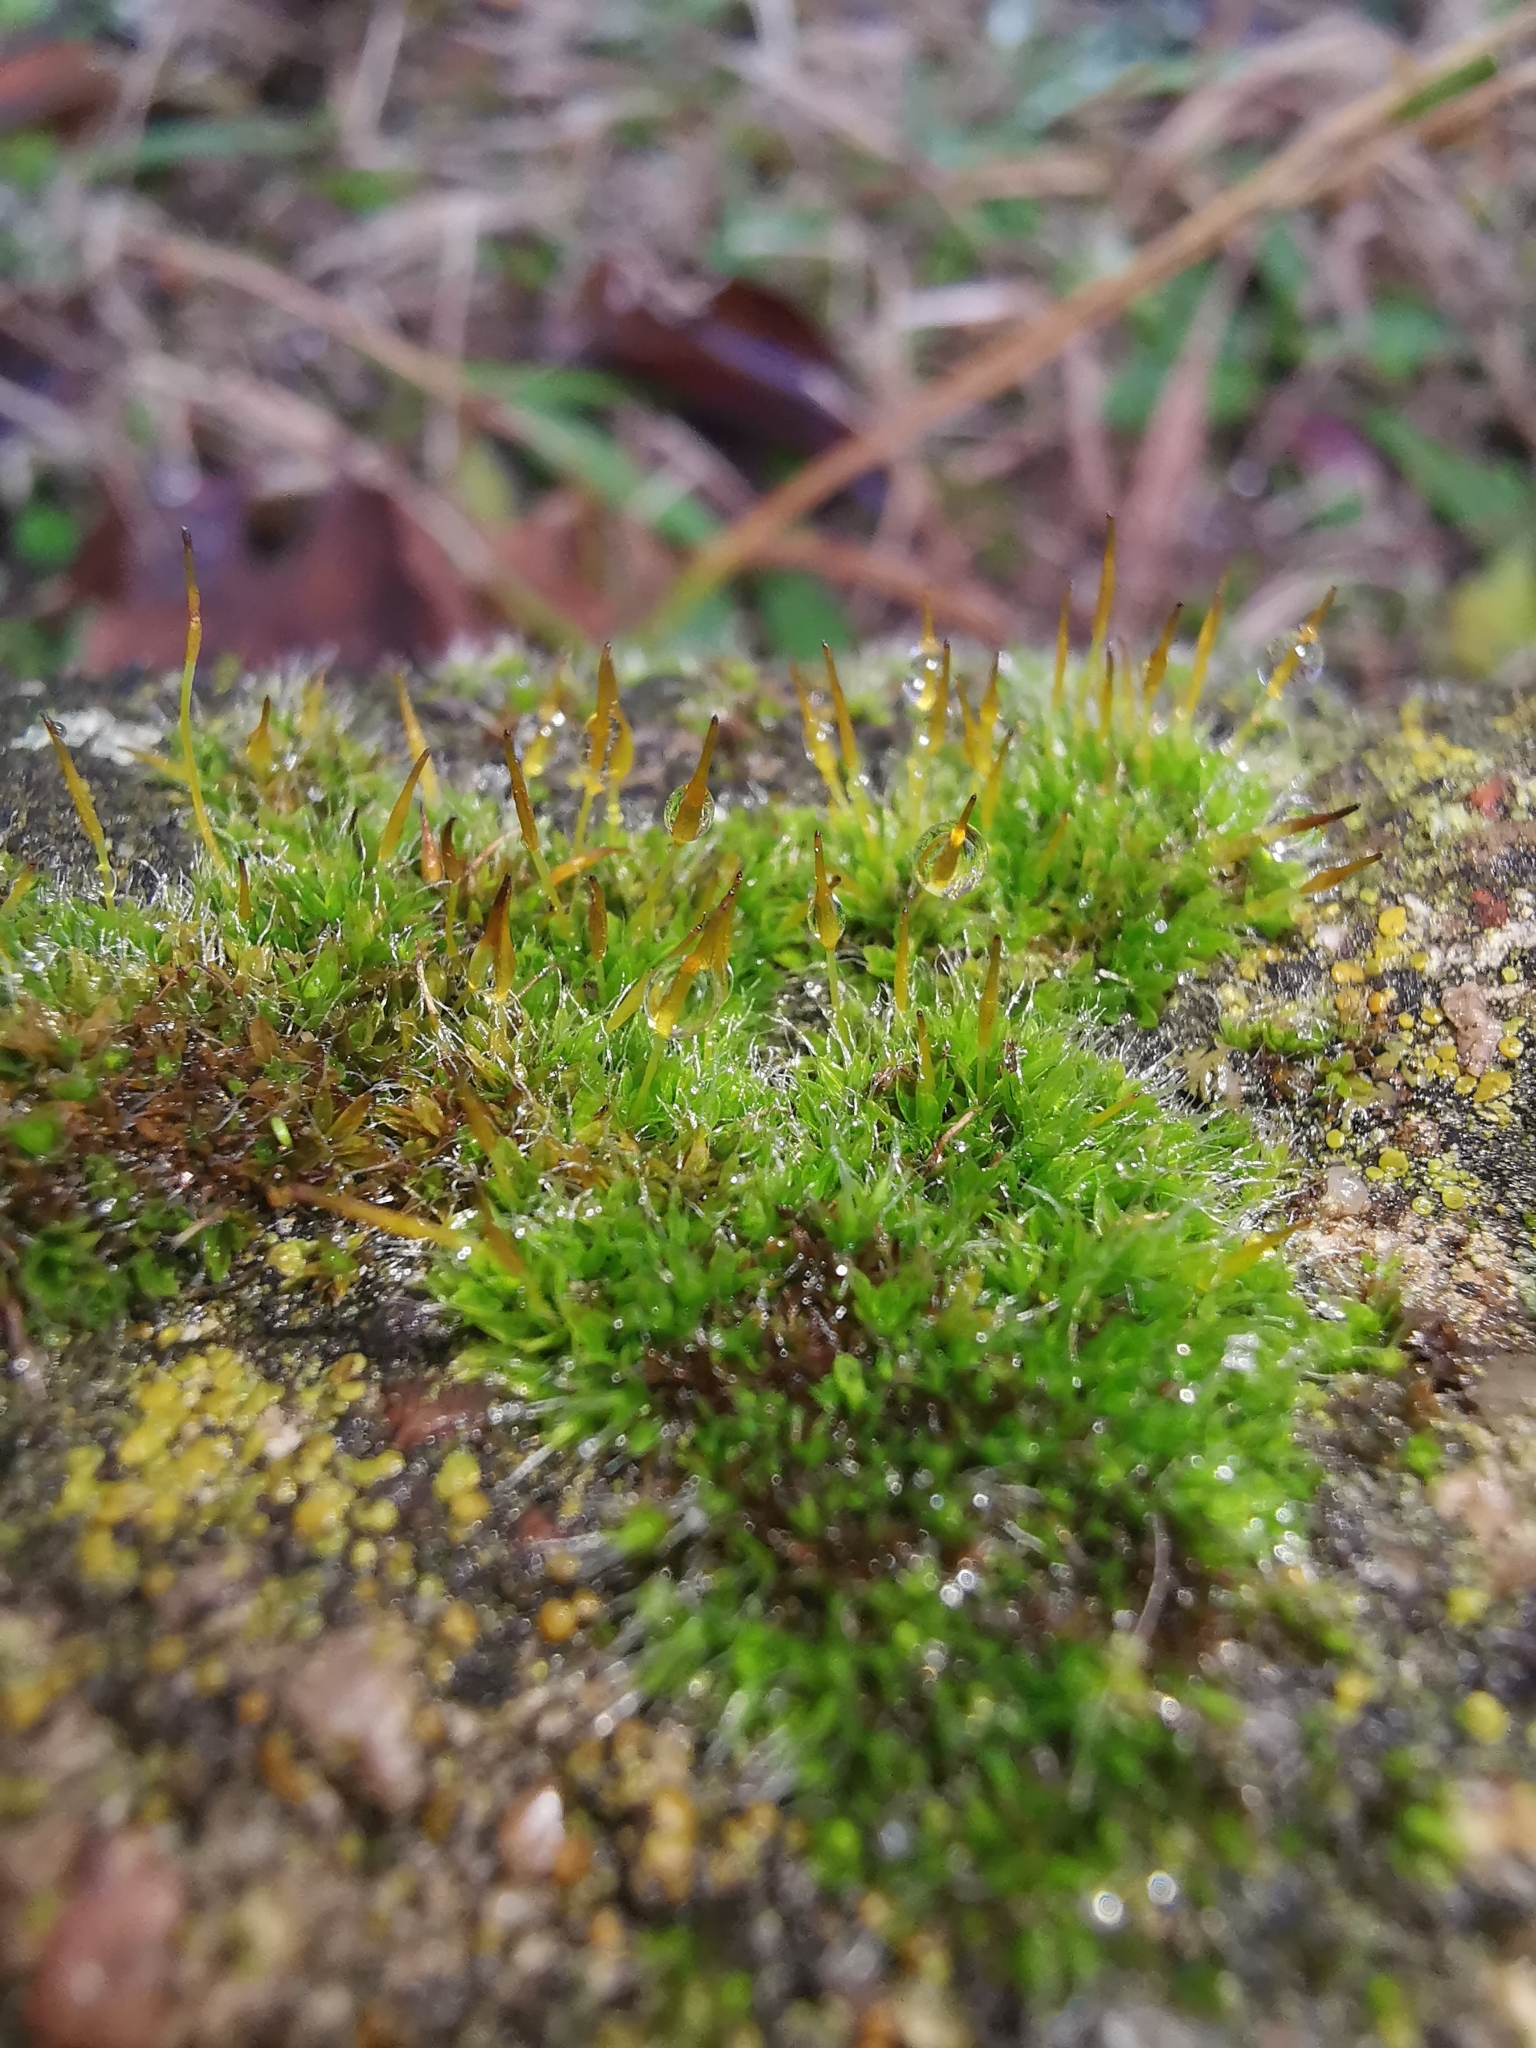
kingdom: Plantae
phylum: Bryophyta
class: Bryopsida
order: Pottiales
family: Pottiaceae
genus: Tortula
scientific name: Tortula muralis
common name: Wall screw-moss
